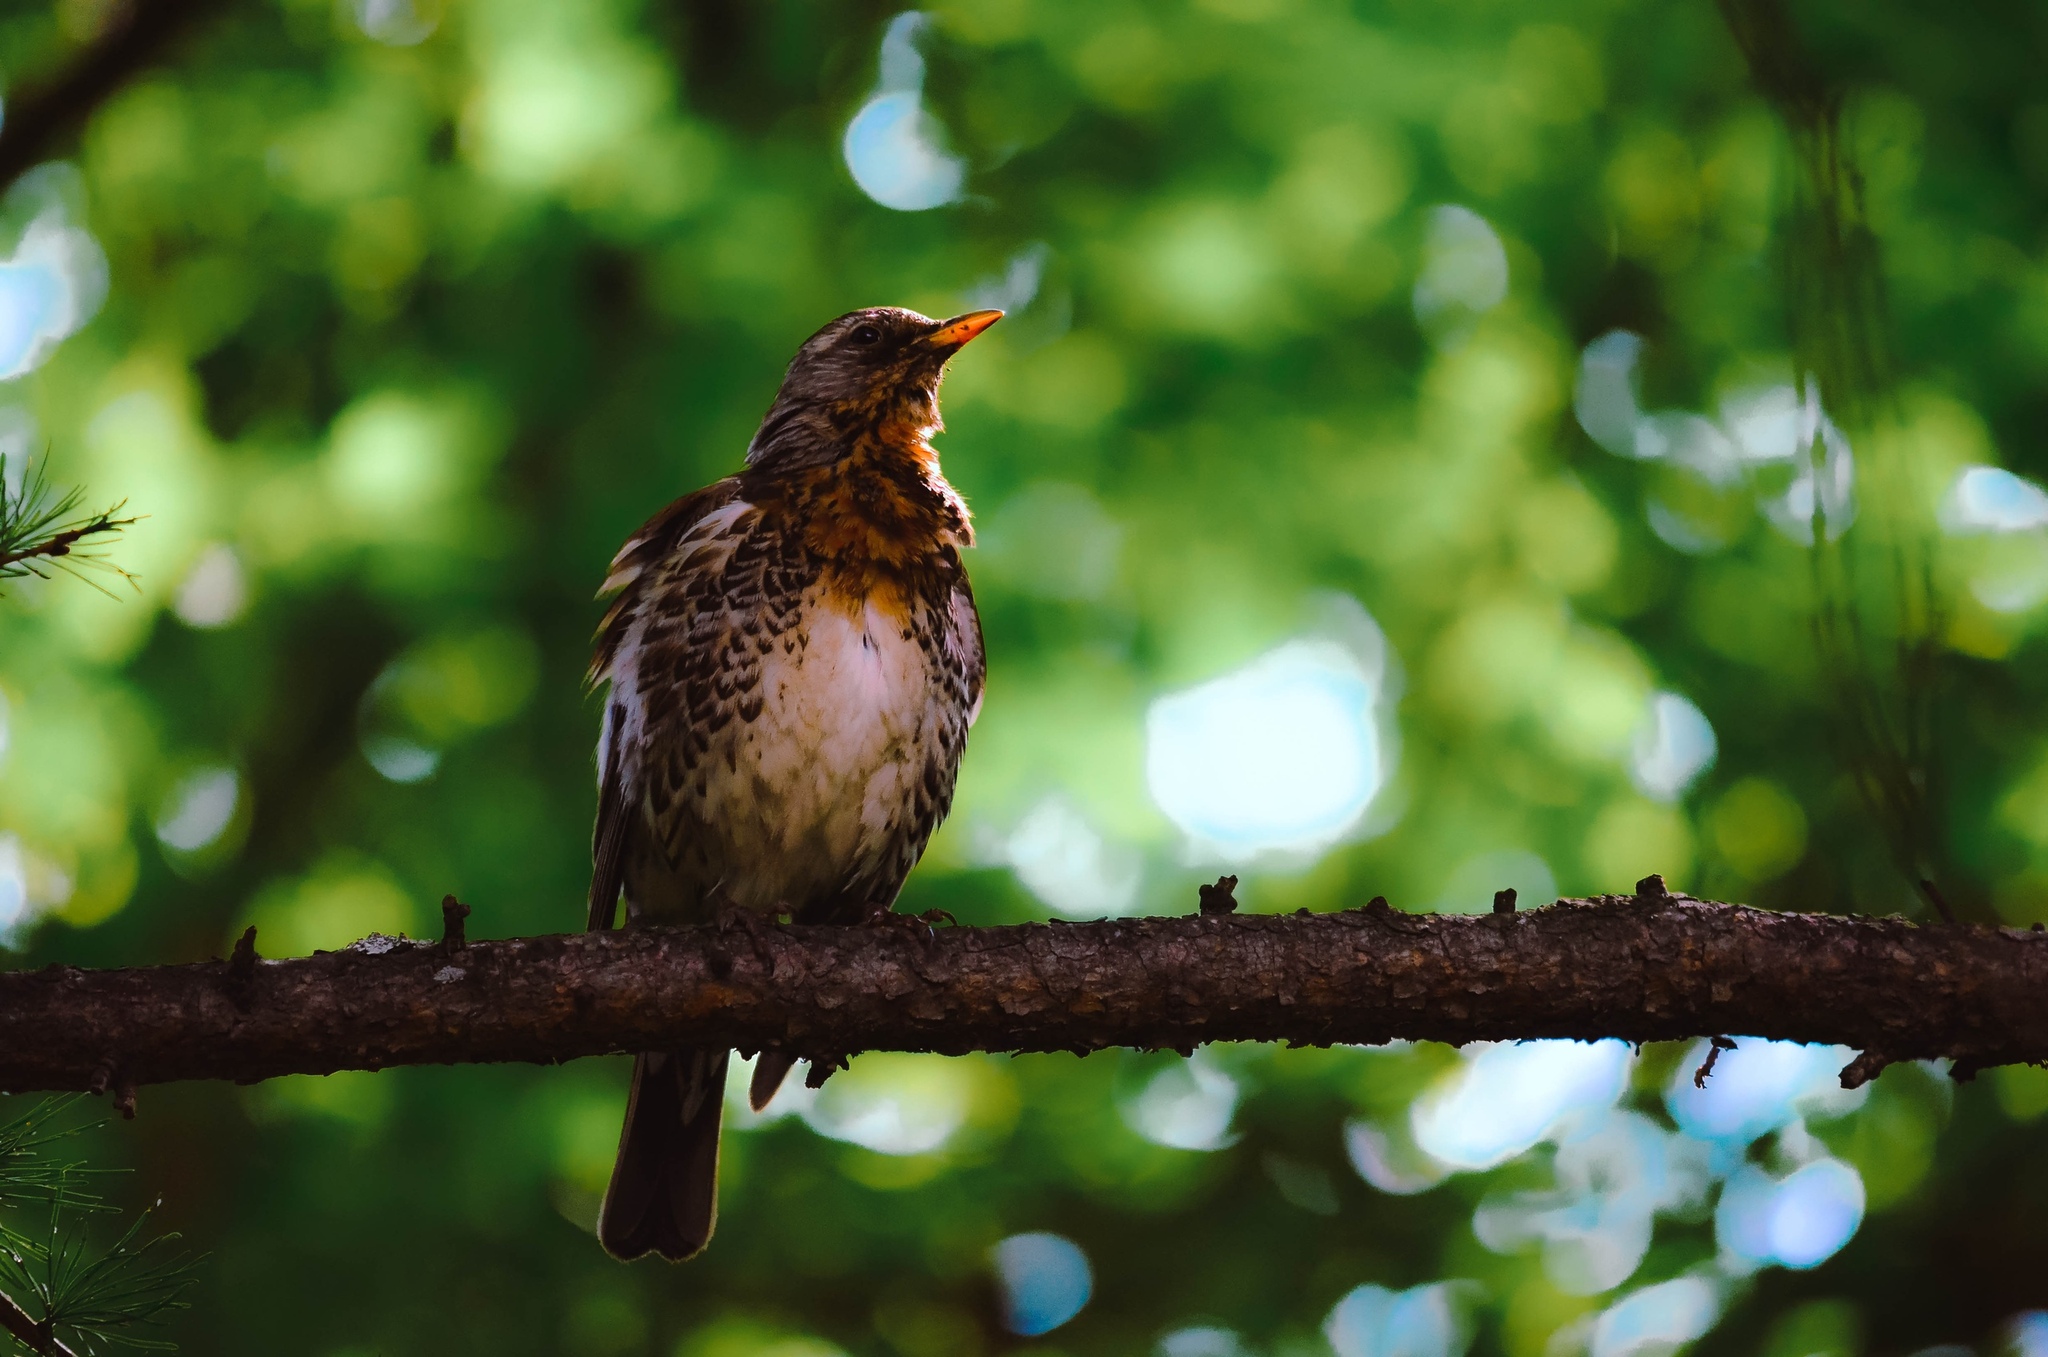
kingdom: Animalia
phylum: Chordata
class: Aves
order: Passeriformes
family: Turdidae
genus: Turdus
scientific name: Turdus pilaris
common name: Fieldfare
